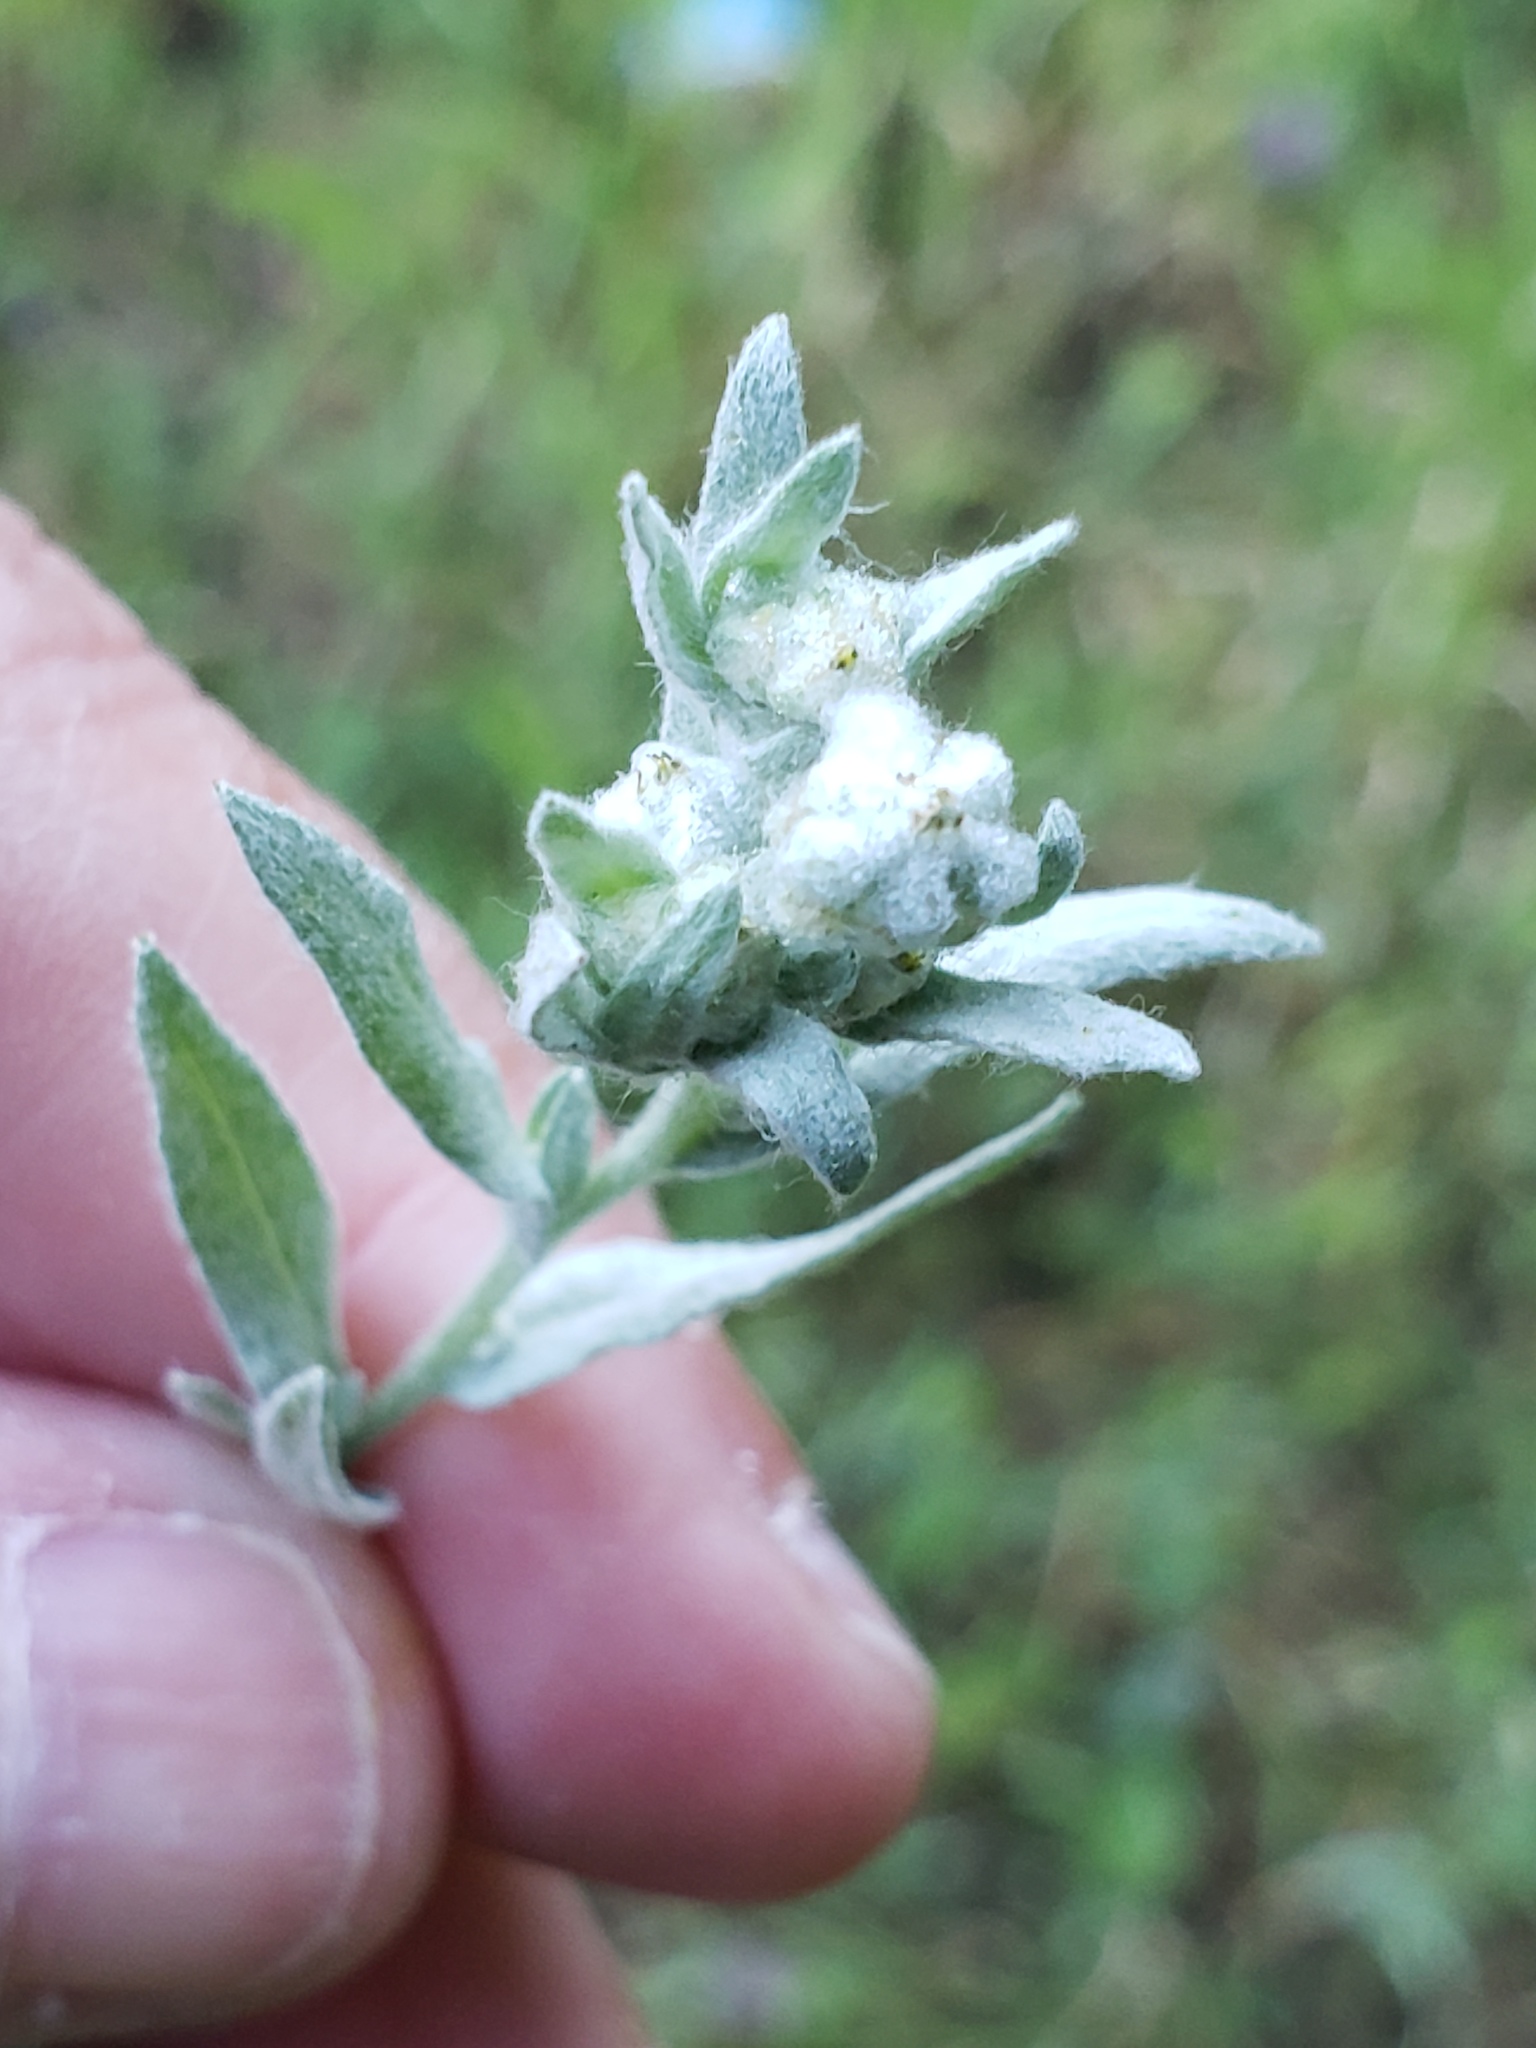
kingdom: Plantae
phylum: Tracheophyta
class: Magnoliopsida
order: Asterales
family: Asteraceae
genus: Bombycilaena
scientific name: Bombycilaena californica
